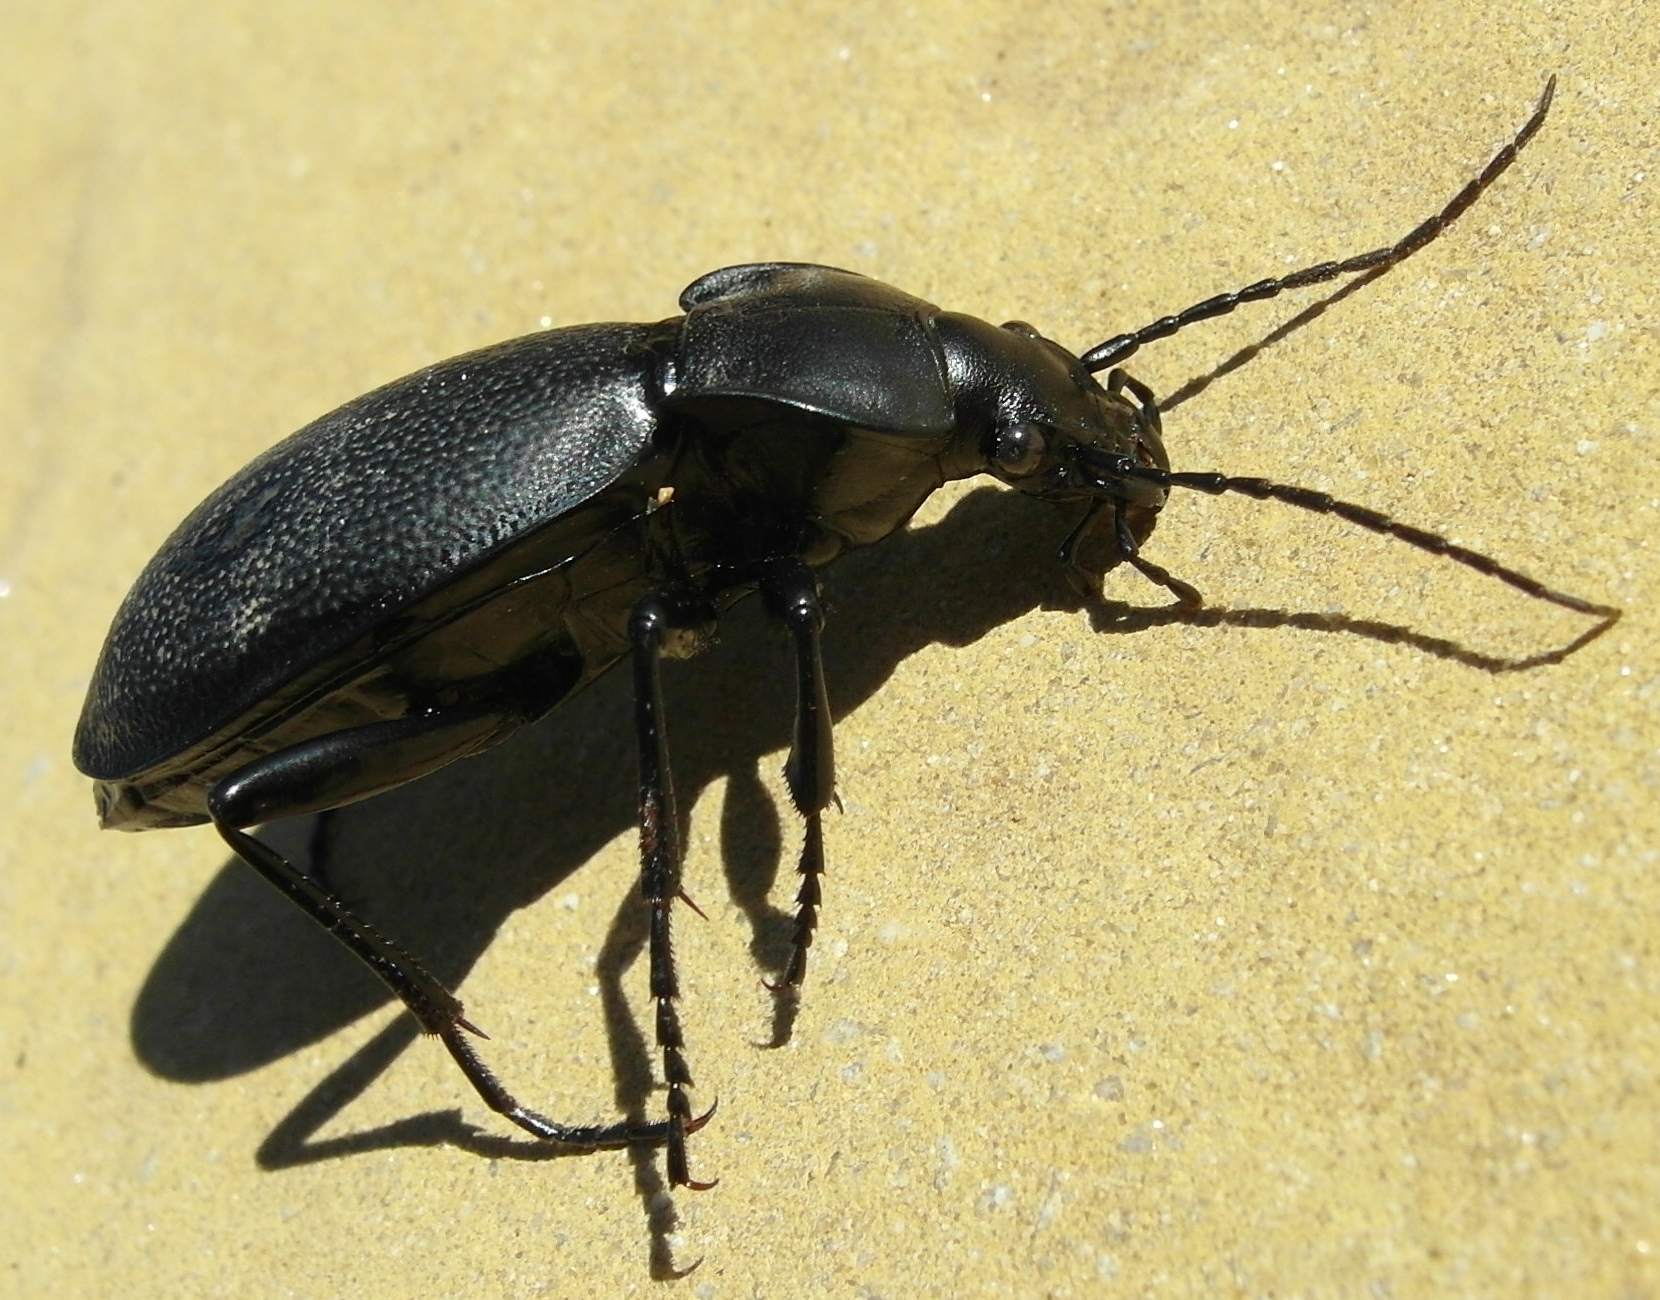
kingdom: Animalia
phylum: Arthropoda
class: Insecta
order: Coleoptera
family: Carabidae
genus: Carabus
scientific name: Carabus coriaceus
